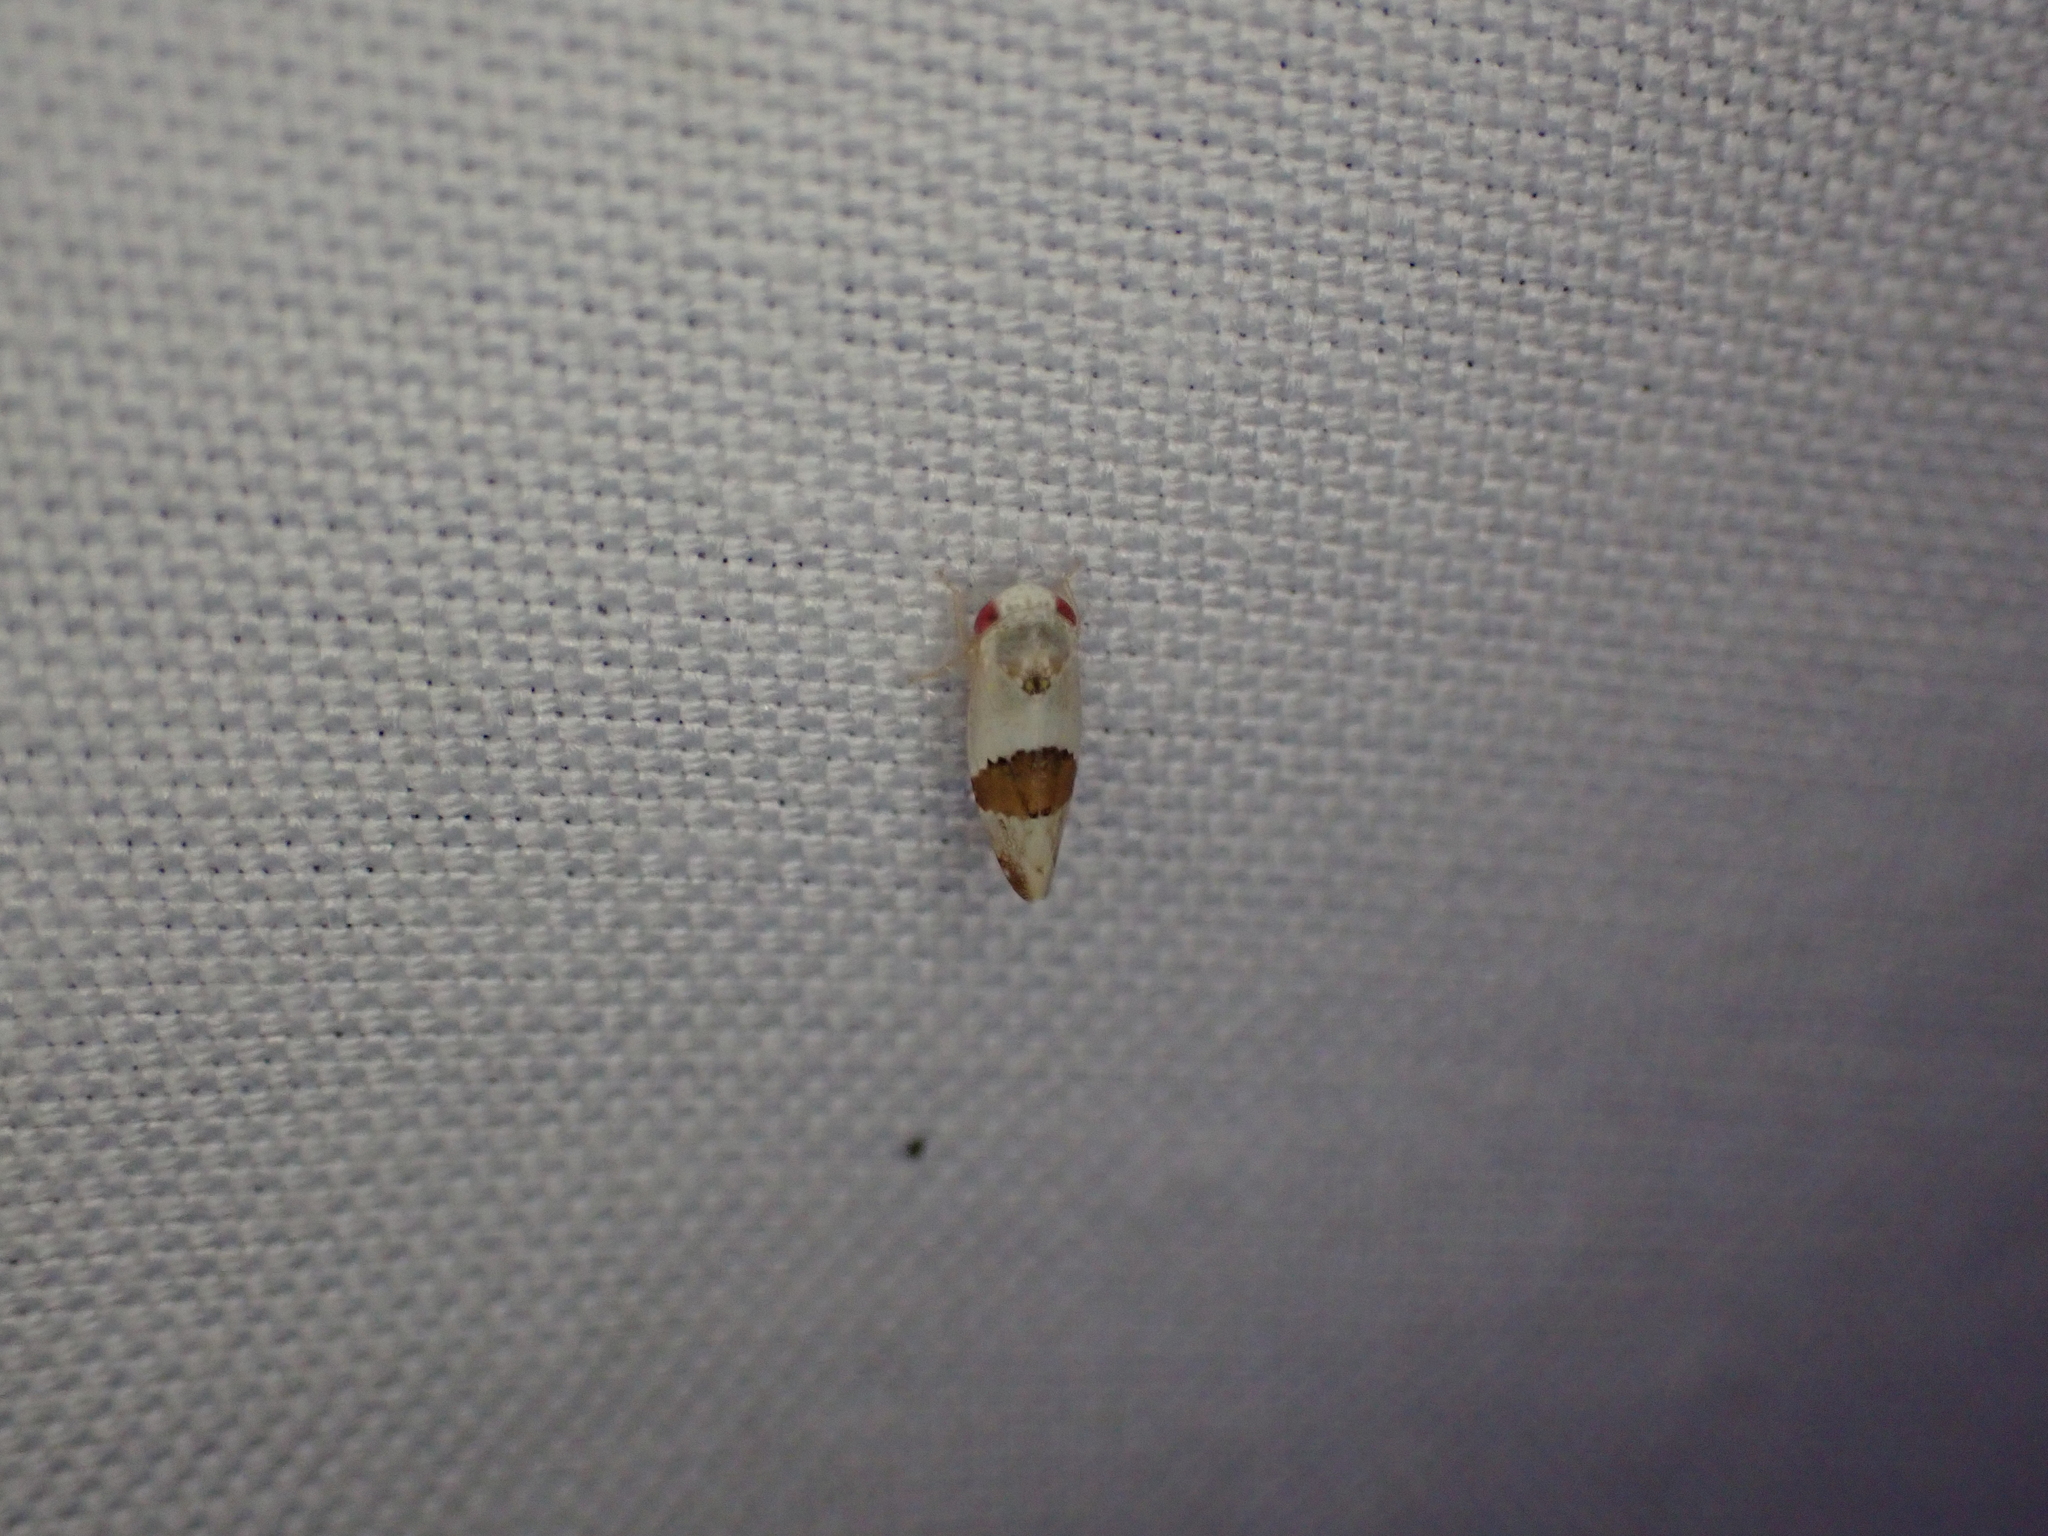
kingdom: Animalia
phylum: Arthropoda
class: Insecta
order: Hemiptera
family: Cicadellidae
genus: Norvellina
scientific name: Norvellina seminuda
